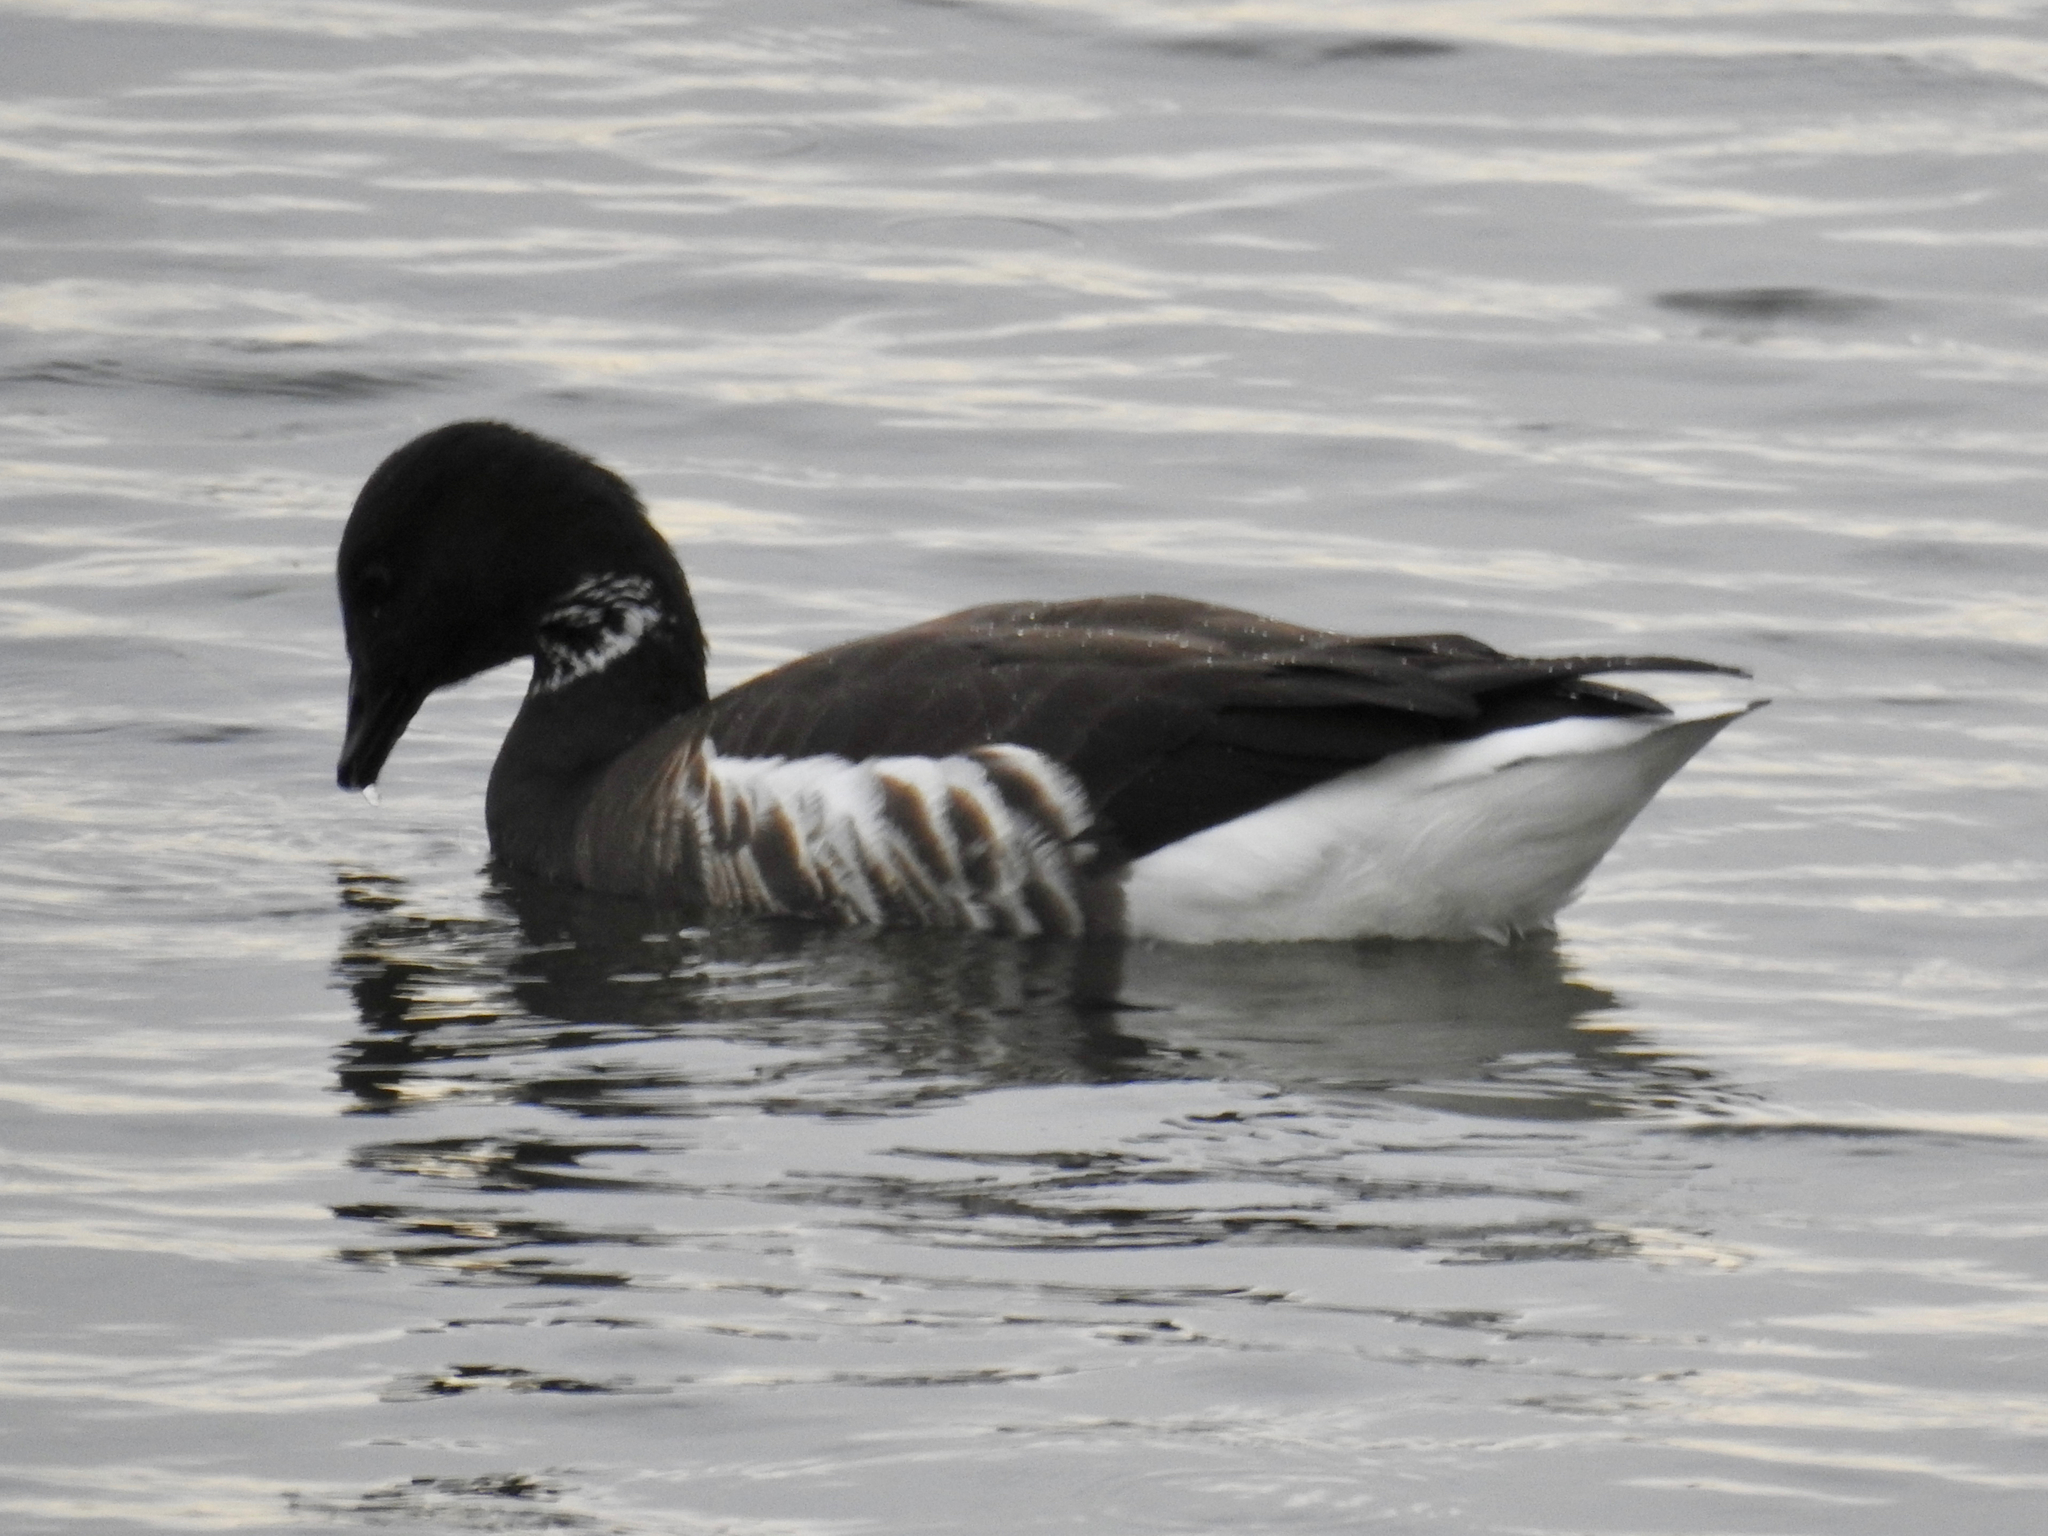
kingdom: Animalia
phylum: Chordata
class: Aves
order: Anseriformes
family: Anatidae
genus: Branta
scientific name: Branta bernicla
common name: Brant goose
